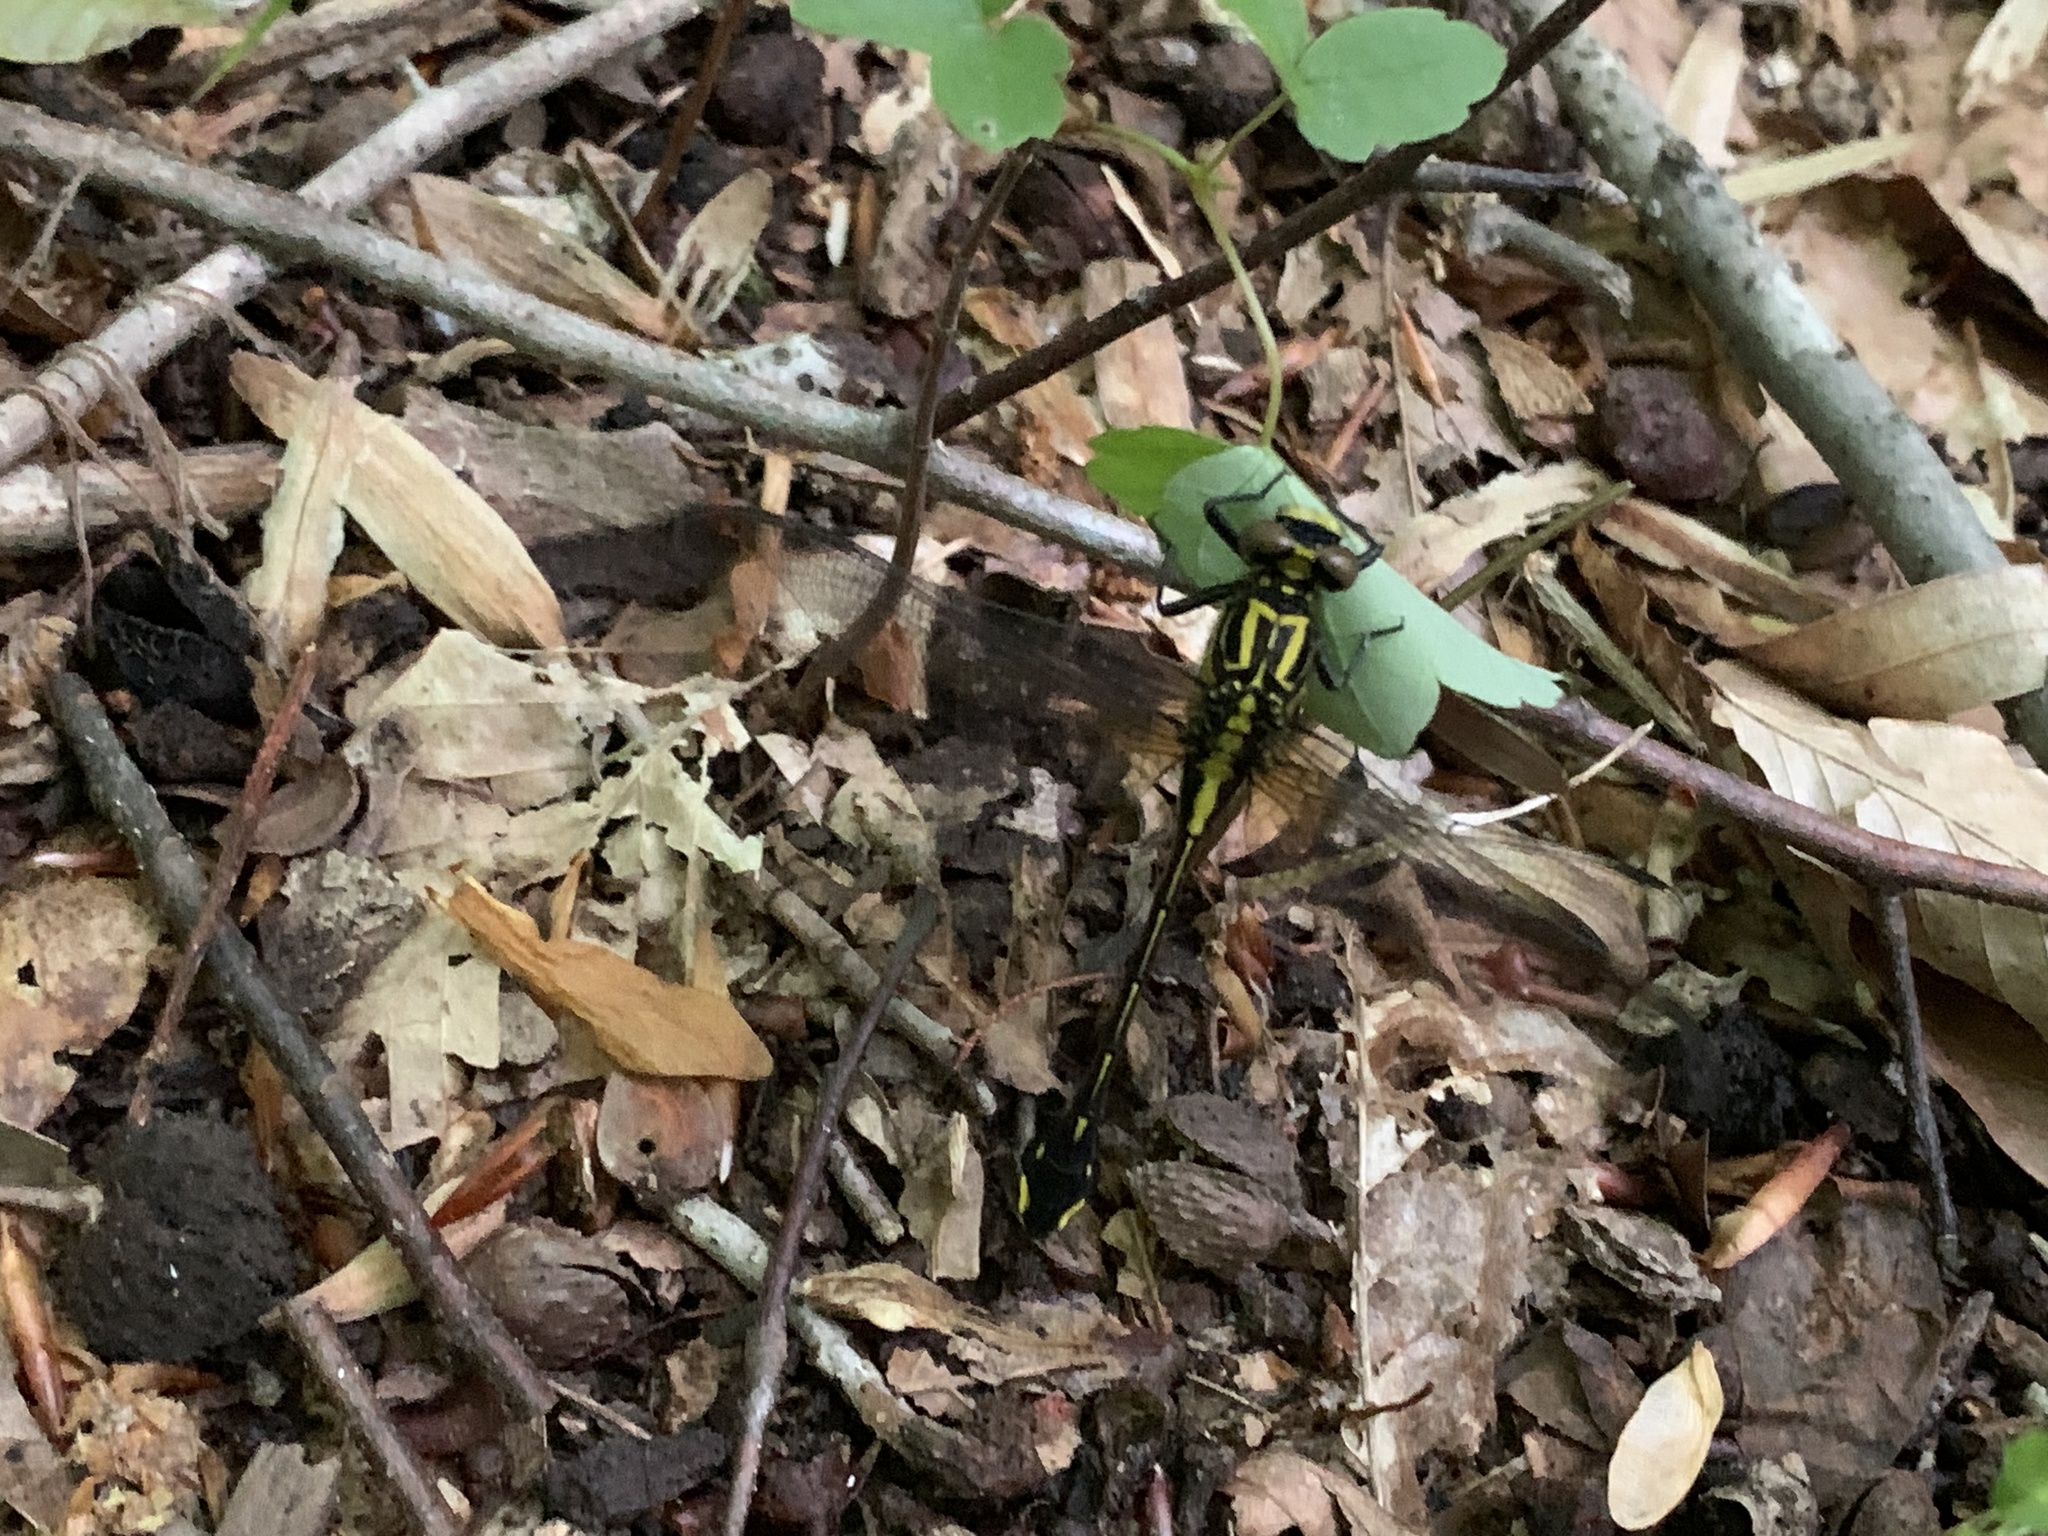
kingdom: Animalia
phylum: Arthropoda
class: Insecta
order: Odonata
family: Gomphidae
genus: Gomphurus
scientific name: Gomphurus vastus
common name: Cobra clubtail
